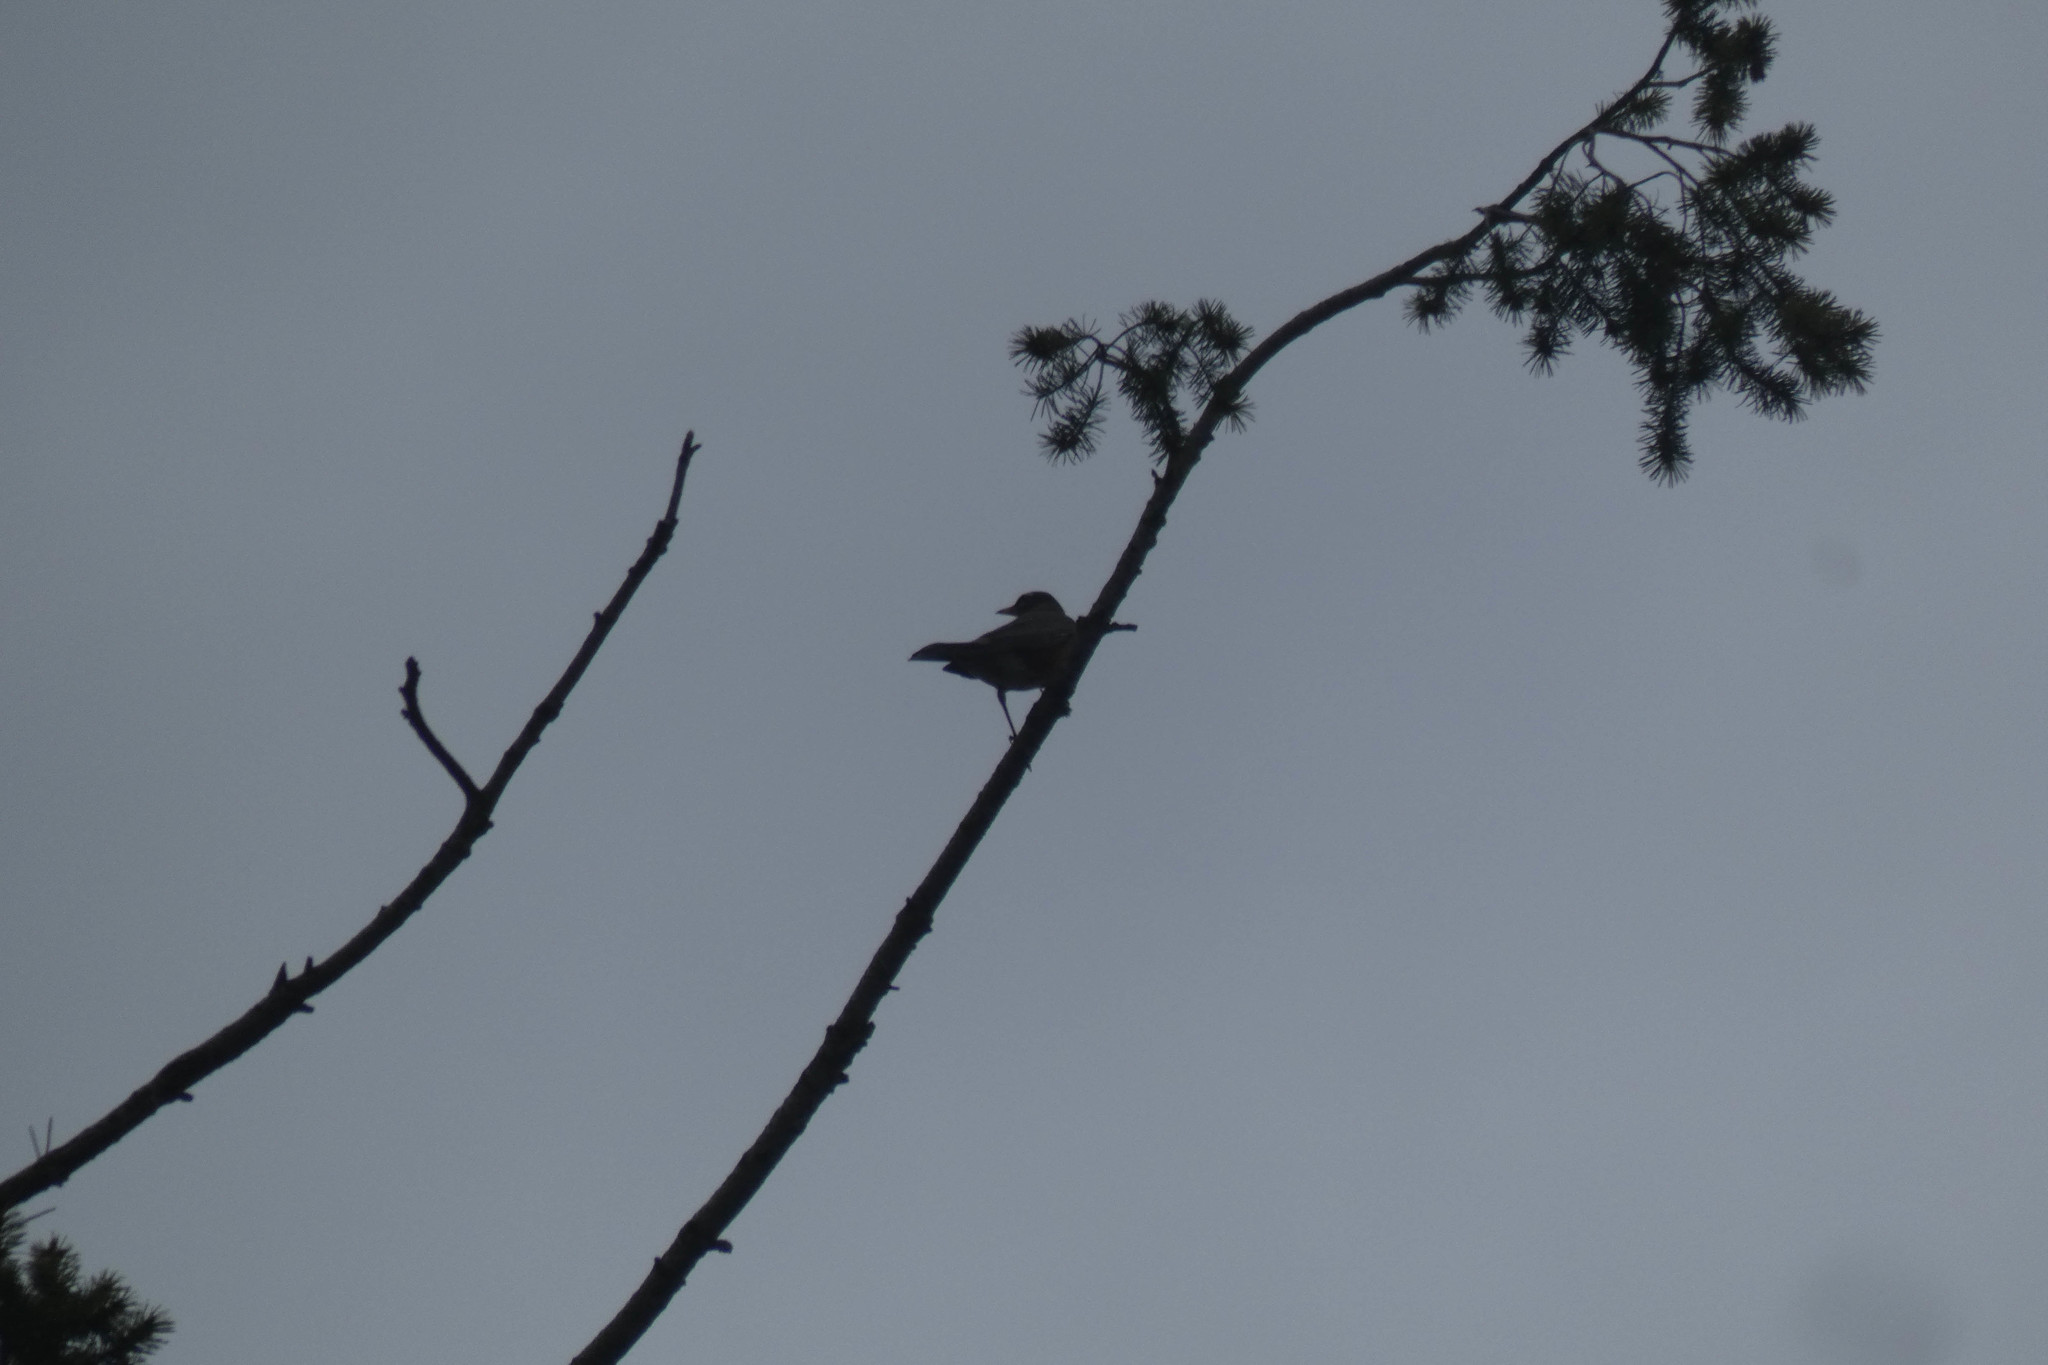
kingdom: Animalia
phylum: Chordata
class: Aves
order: Passeriformes
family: Turdidae
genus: Turdus
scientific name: Turdus migratorius
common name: American robin
